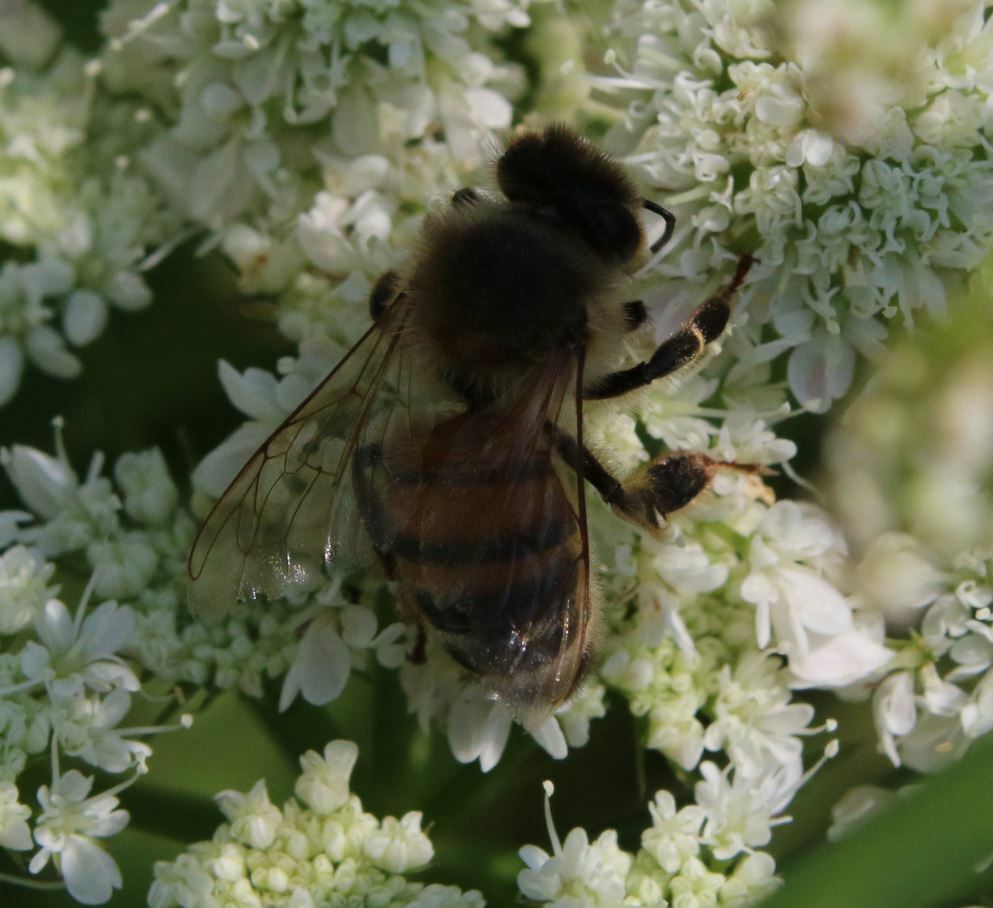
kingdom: Animalia
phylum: Arthropoda
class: Insecta
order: Hymenoptera
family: Apidae
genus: Apis
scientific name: Apis mellifera
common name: Honey bee
